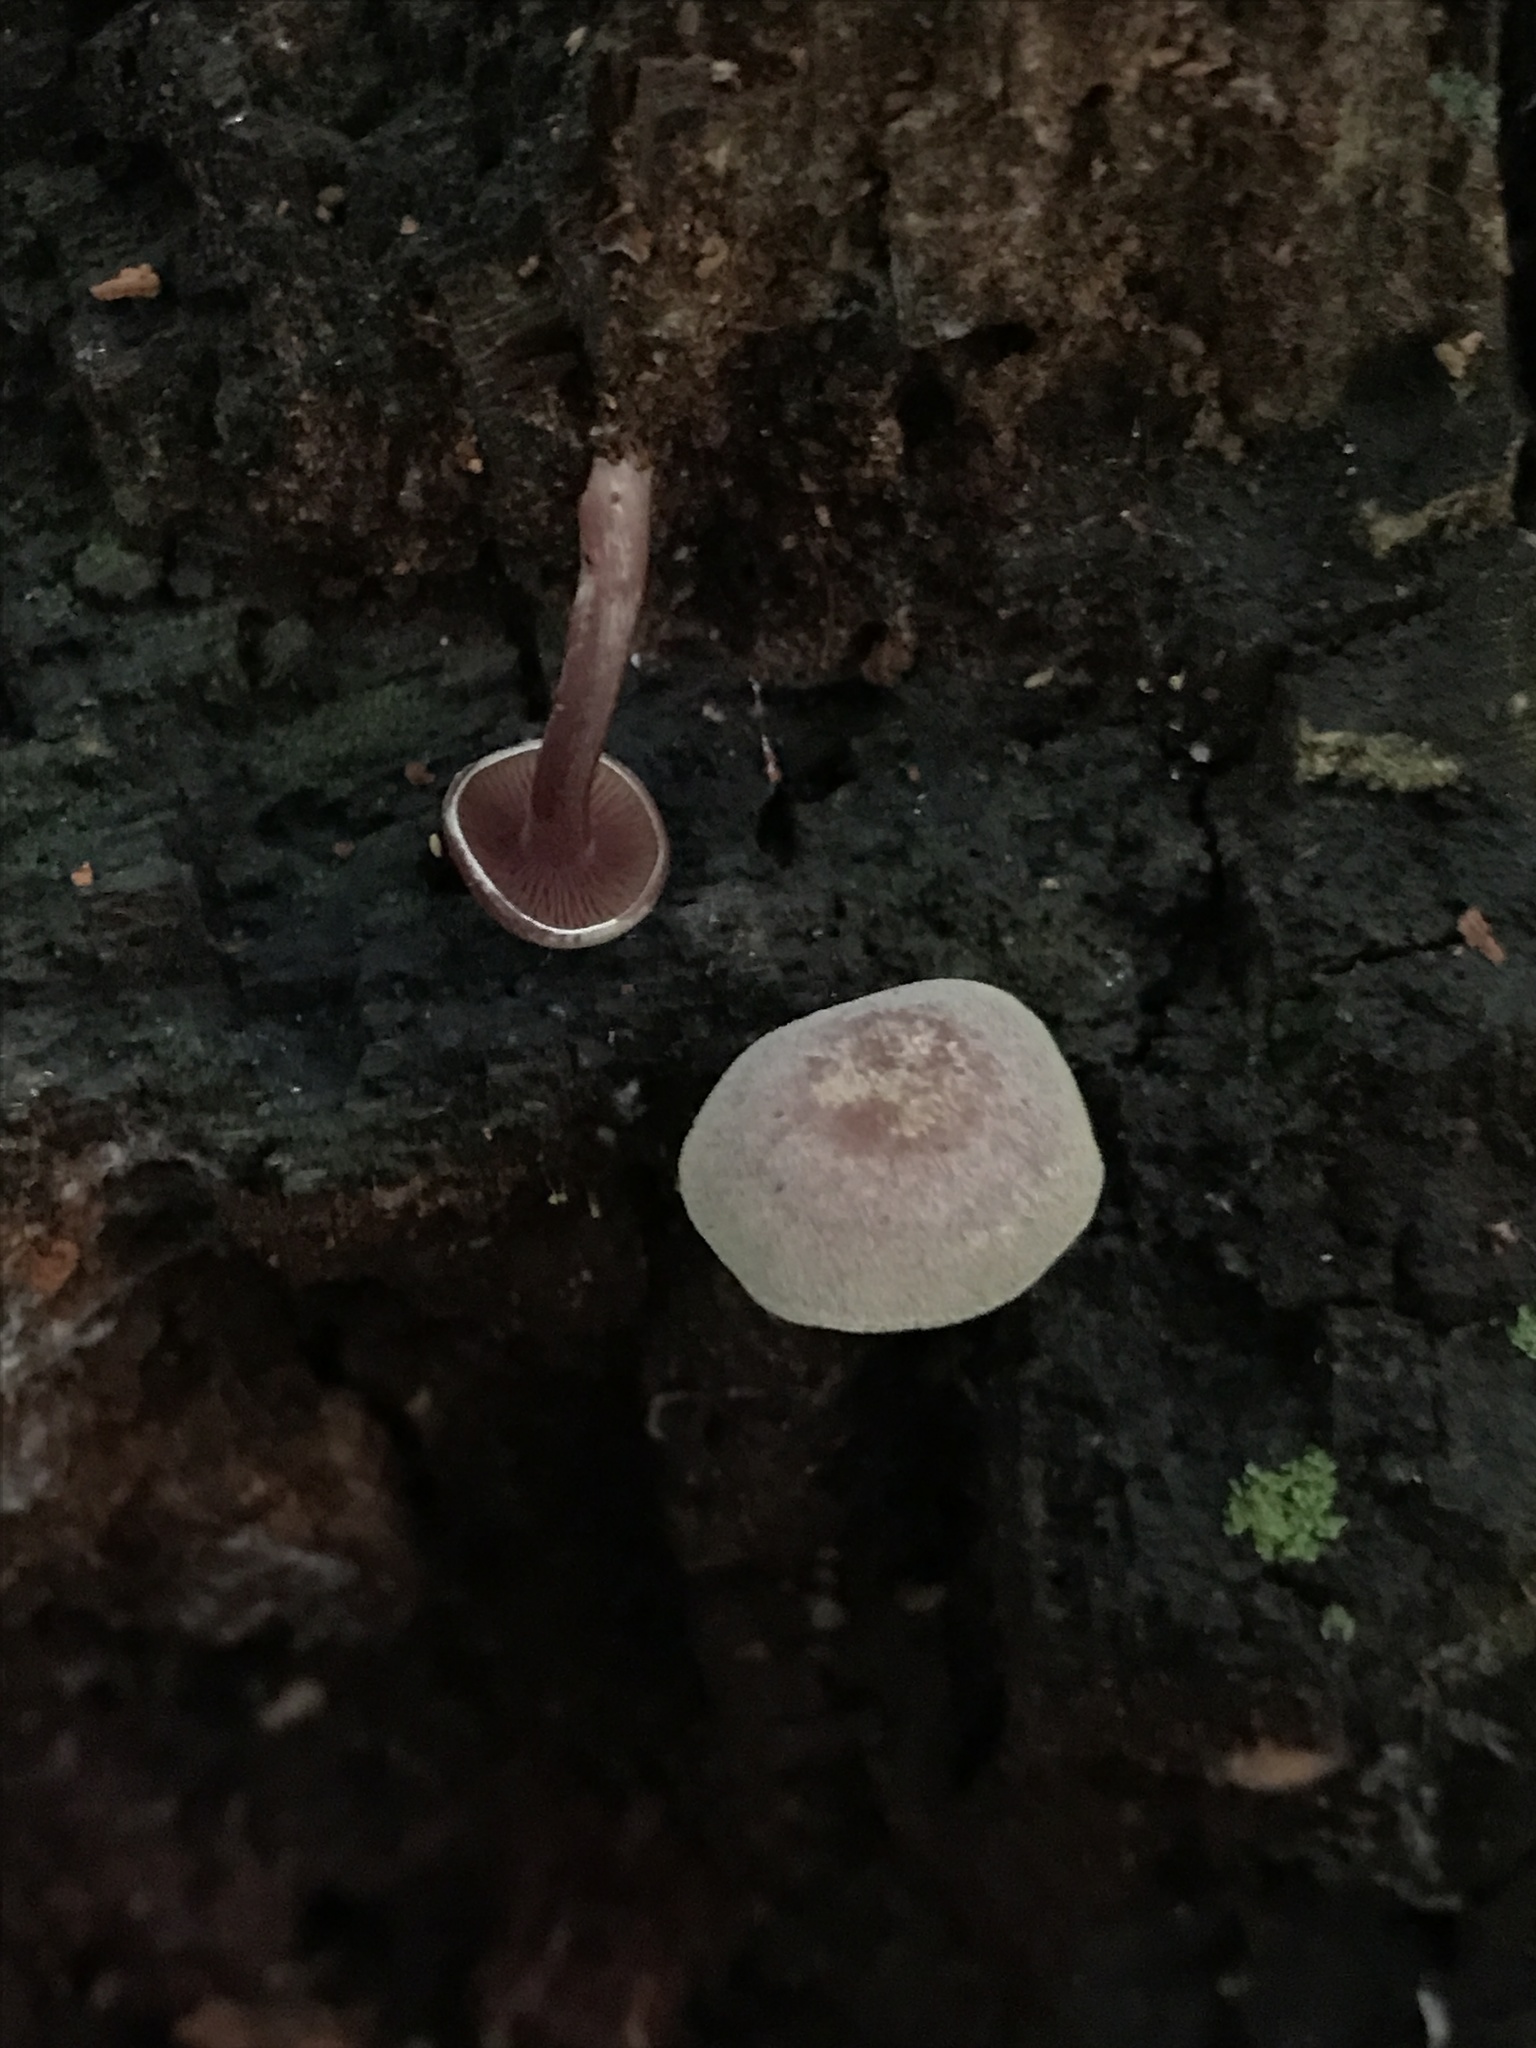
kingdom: Fungi
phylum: Basidiomycota
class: Agaricomycetes
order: Agaricales
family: Callistosporiaceae
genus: Callistosporium
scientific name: Callistosporium purpureomarginatum
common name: Purple-edged lute
